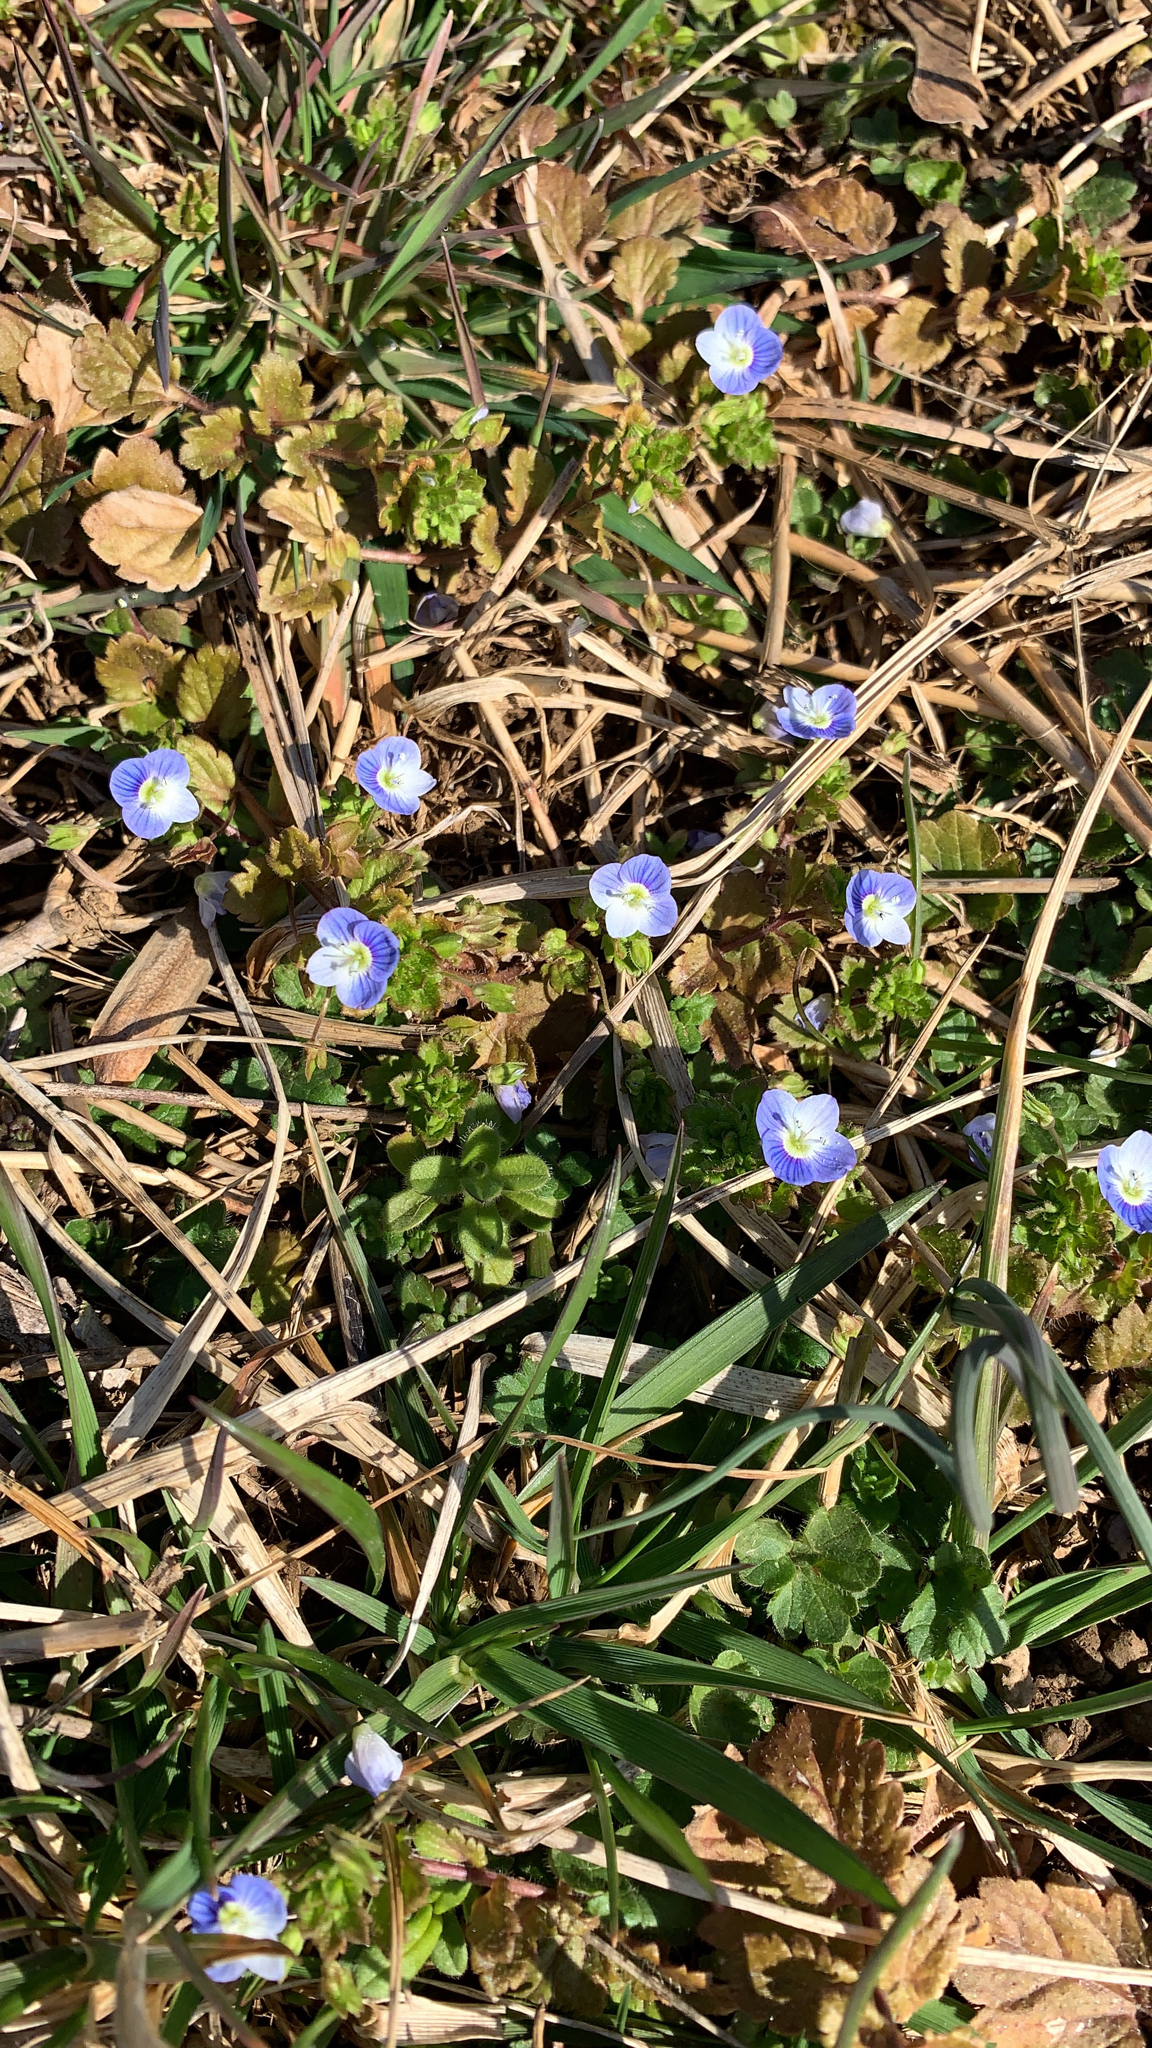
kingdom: Plantae
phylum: Tracheophyta
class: Magnoliopsida
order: Lamiales
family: Plantaginaceae
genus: Veronica
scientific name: Veronica persica
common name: Common field-speedwell
